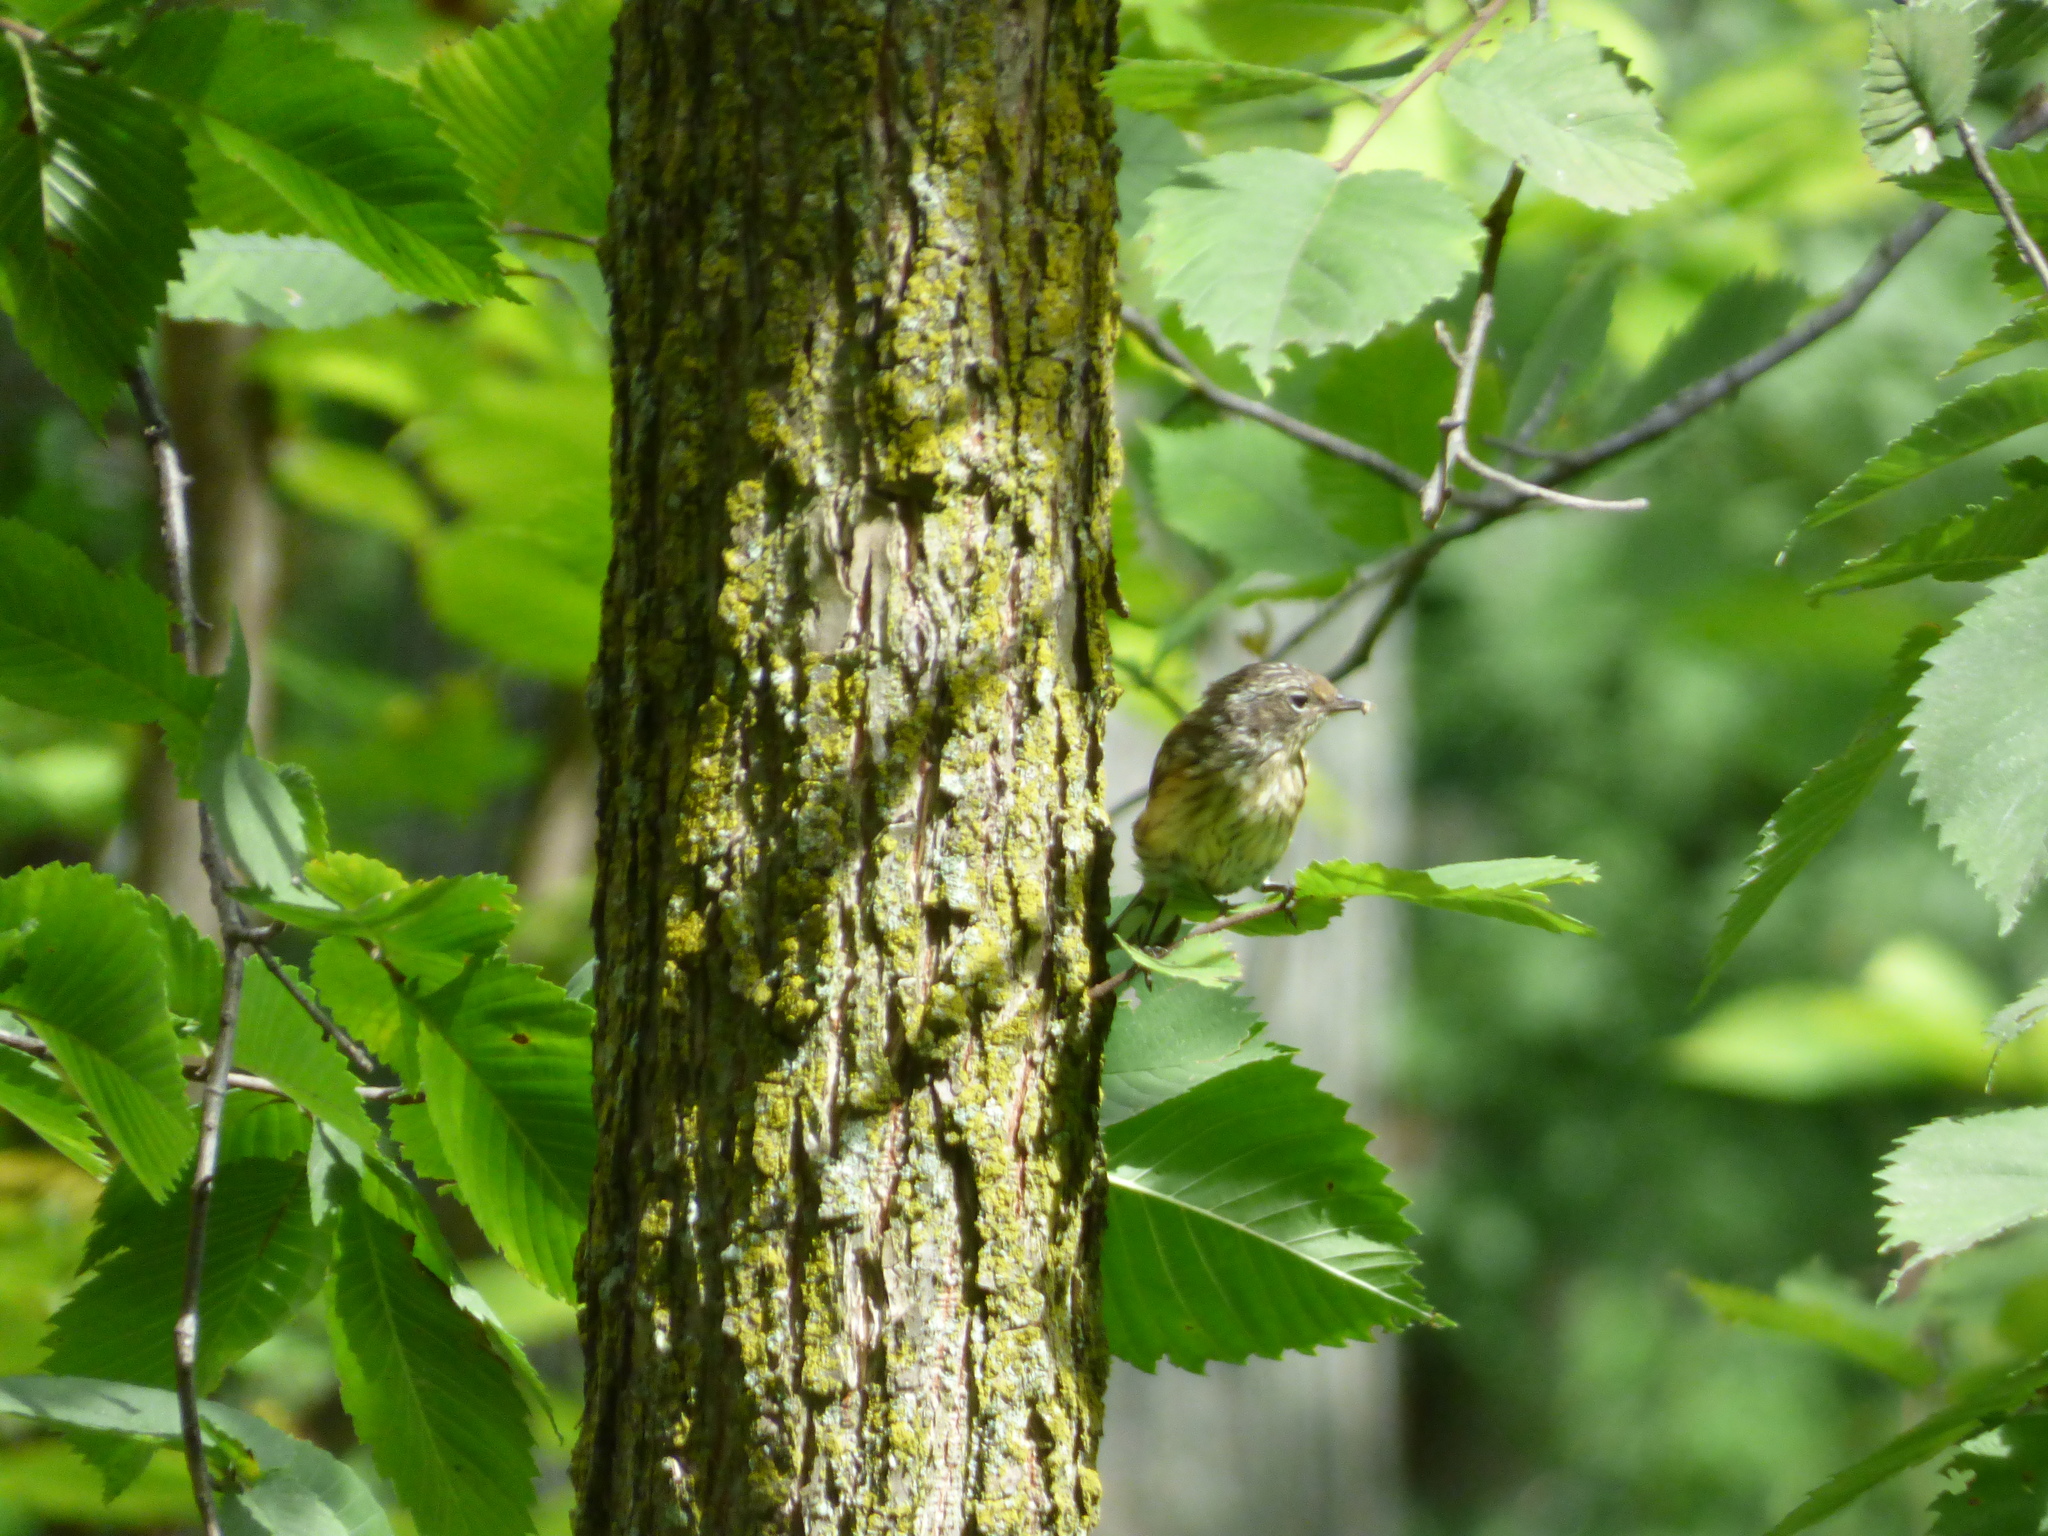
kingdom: Animalia
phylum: Chordata
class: Aves
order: Passeriformes
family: Parulidae
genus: Setophaga
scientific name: Setophaga coronata
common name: Myrtle warbler
